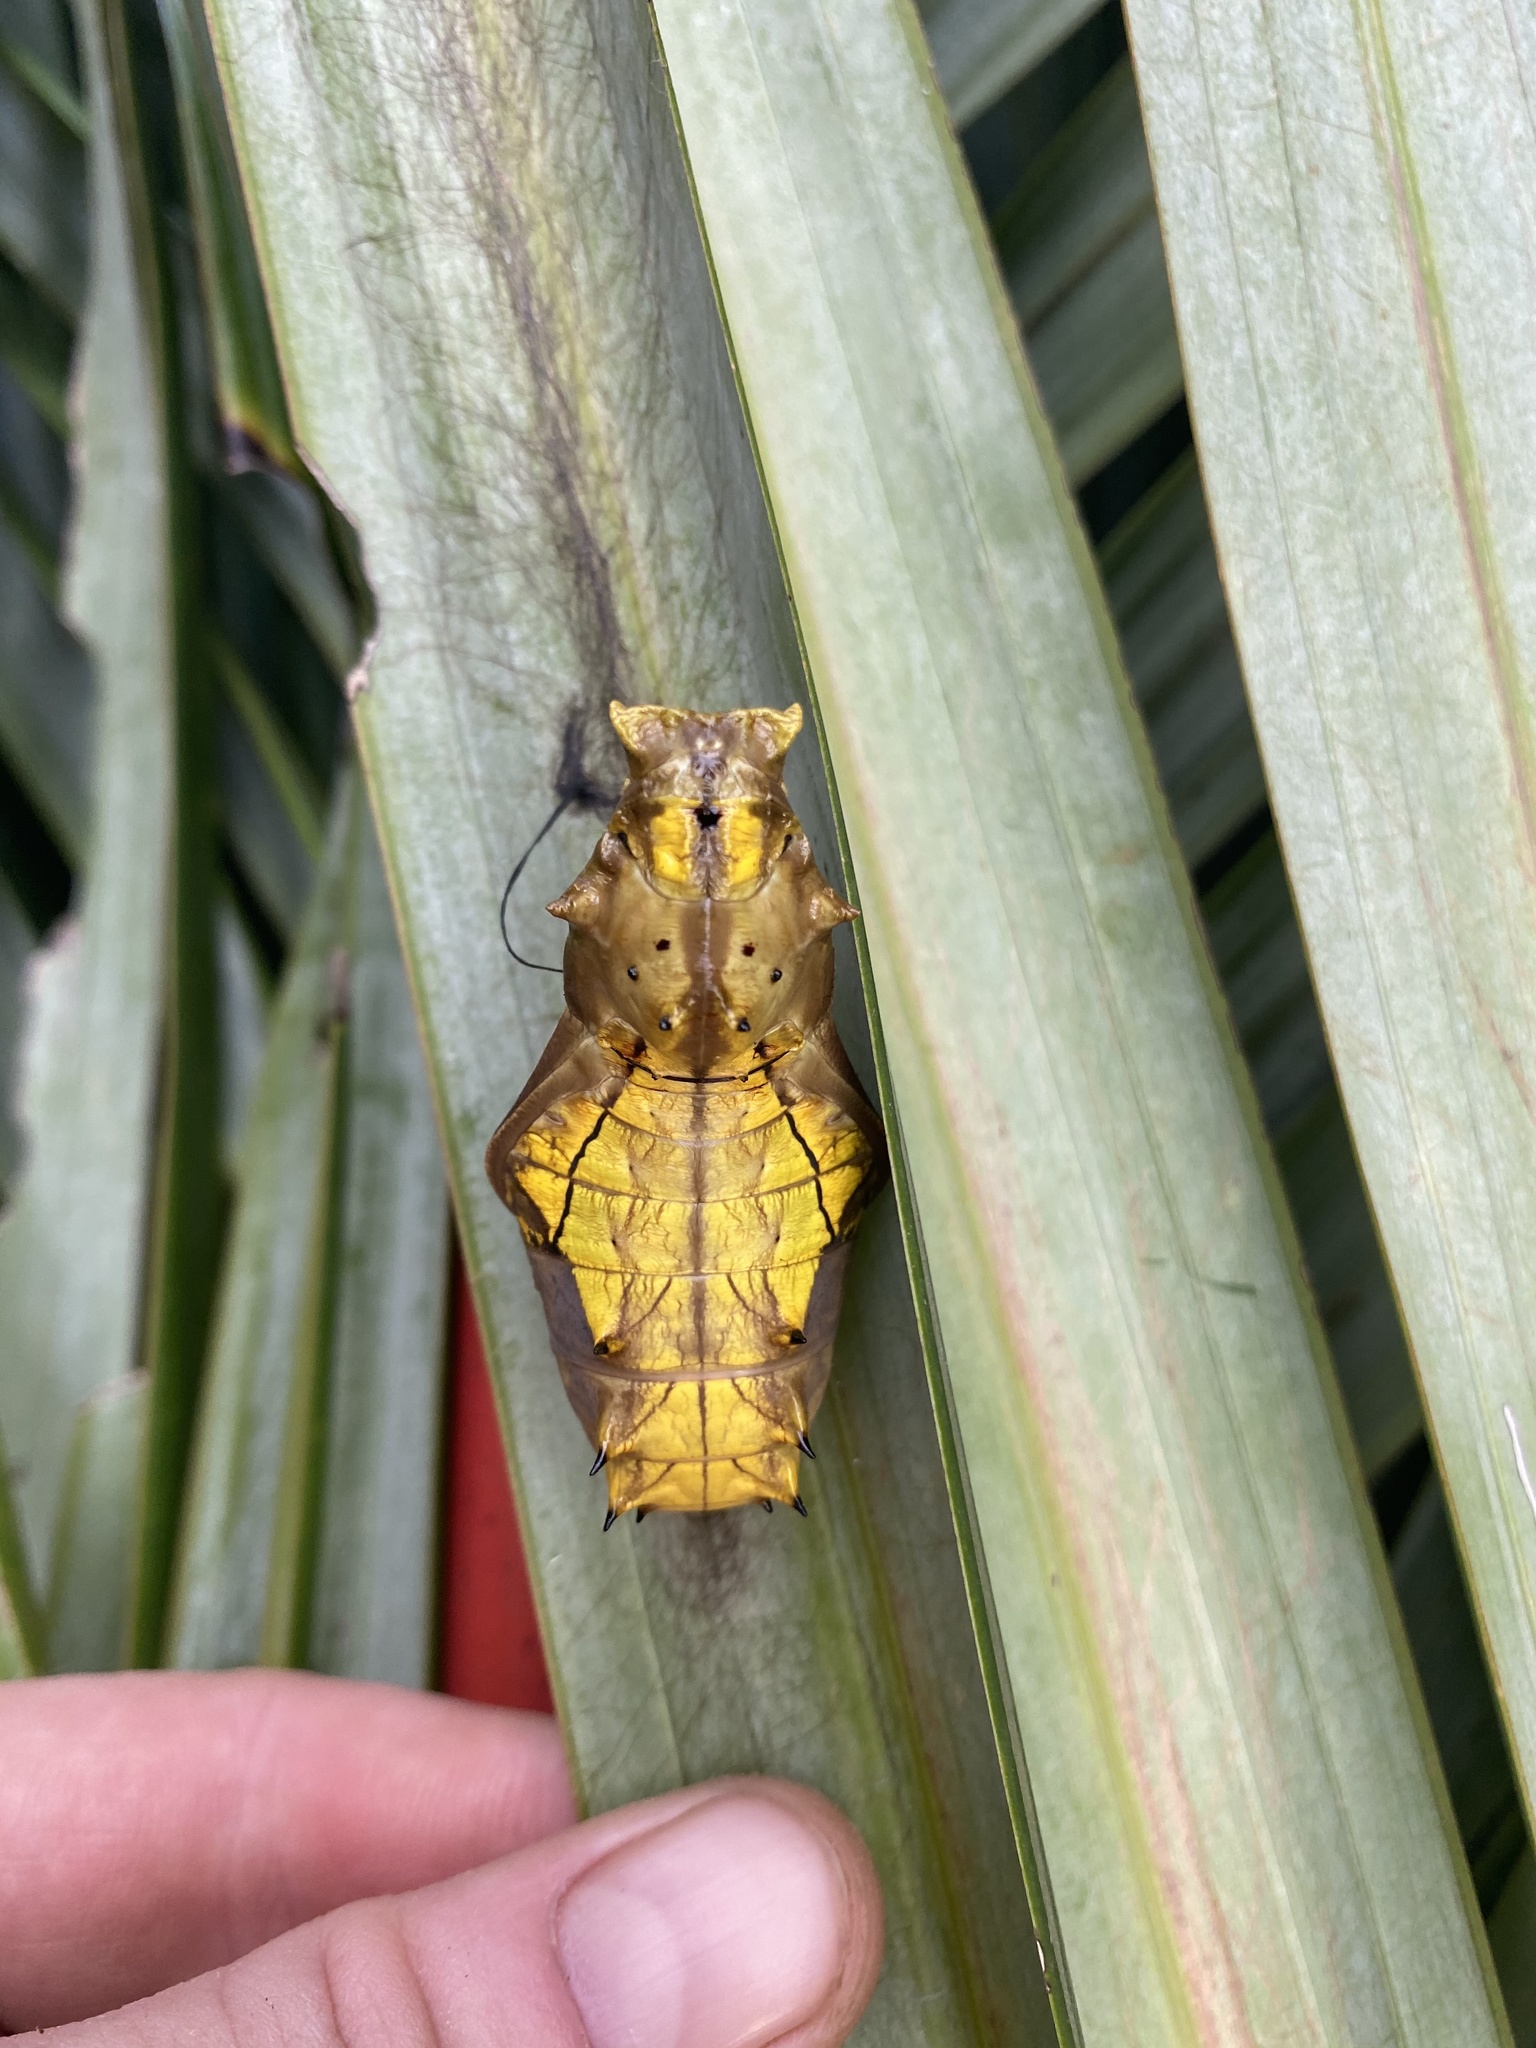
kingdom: Animalia
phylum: Arthropoda
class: Insecta
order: Lepidoptera
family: Papilionidae
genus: Ornithoptera
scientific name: Ornithoptera euphorion
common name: Cairns birdwing
